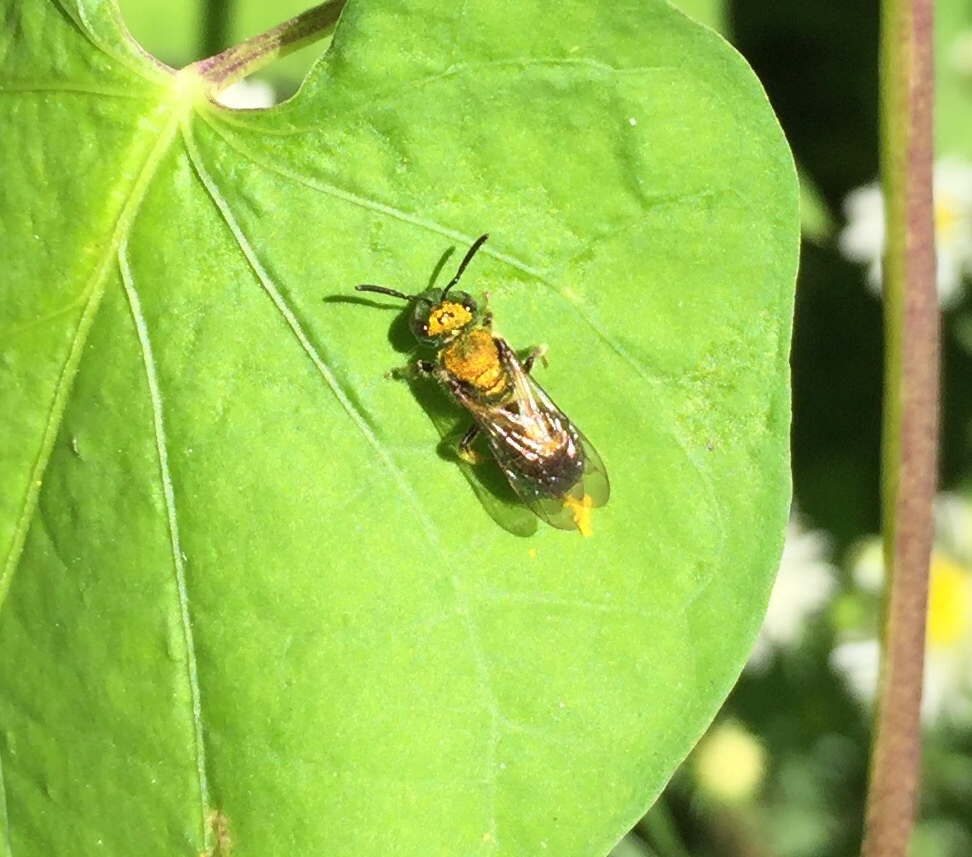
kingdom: Animalia
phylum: Arthropoda
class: Insecta
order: Hymenoptera
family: Halictidae
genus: Augochlora
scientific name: Augochlora pura
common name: Pure green sweat bee
